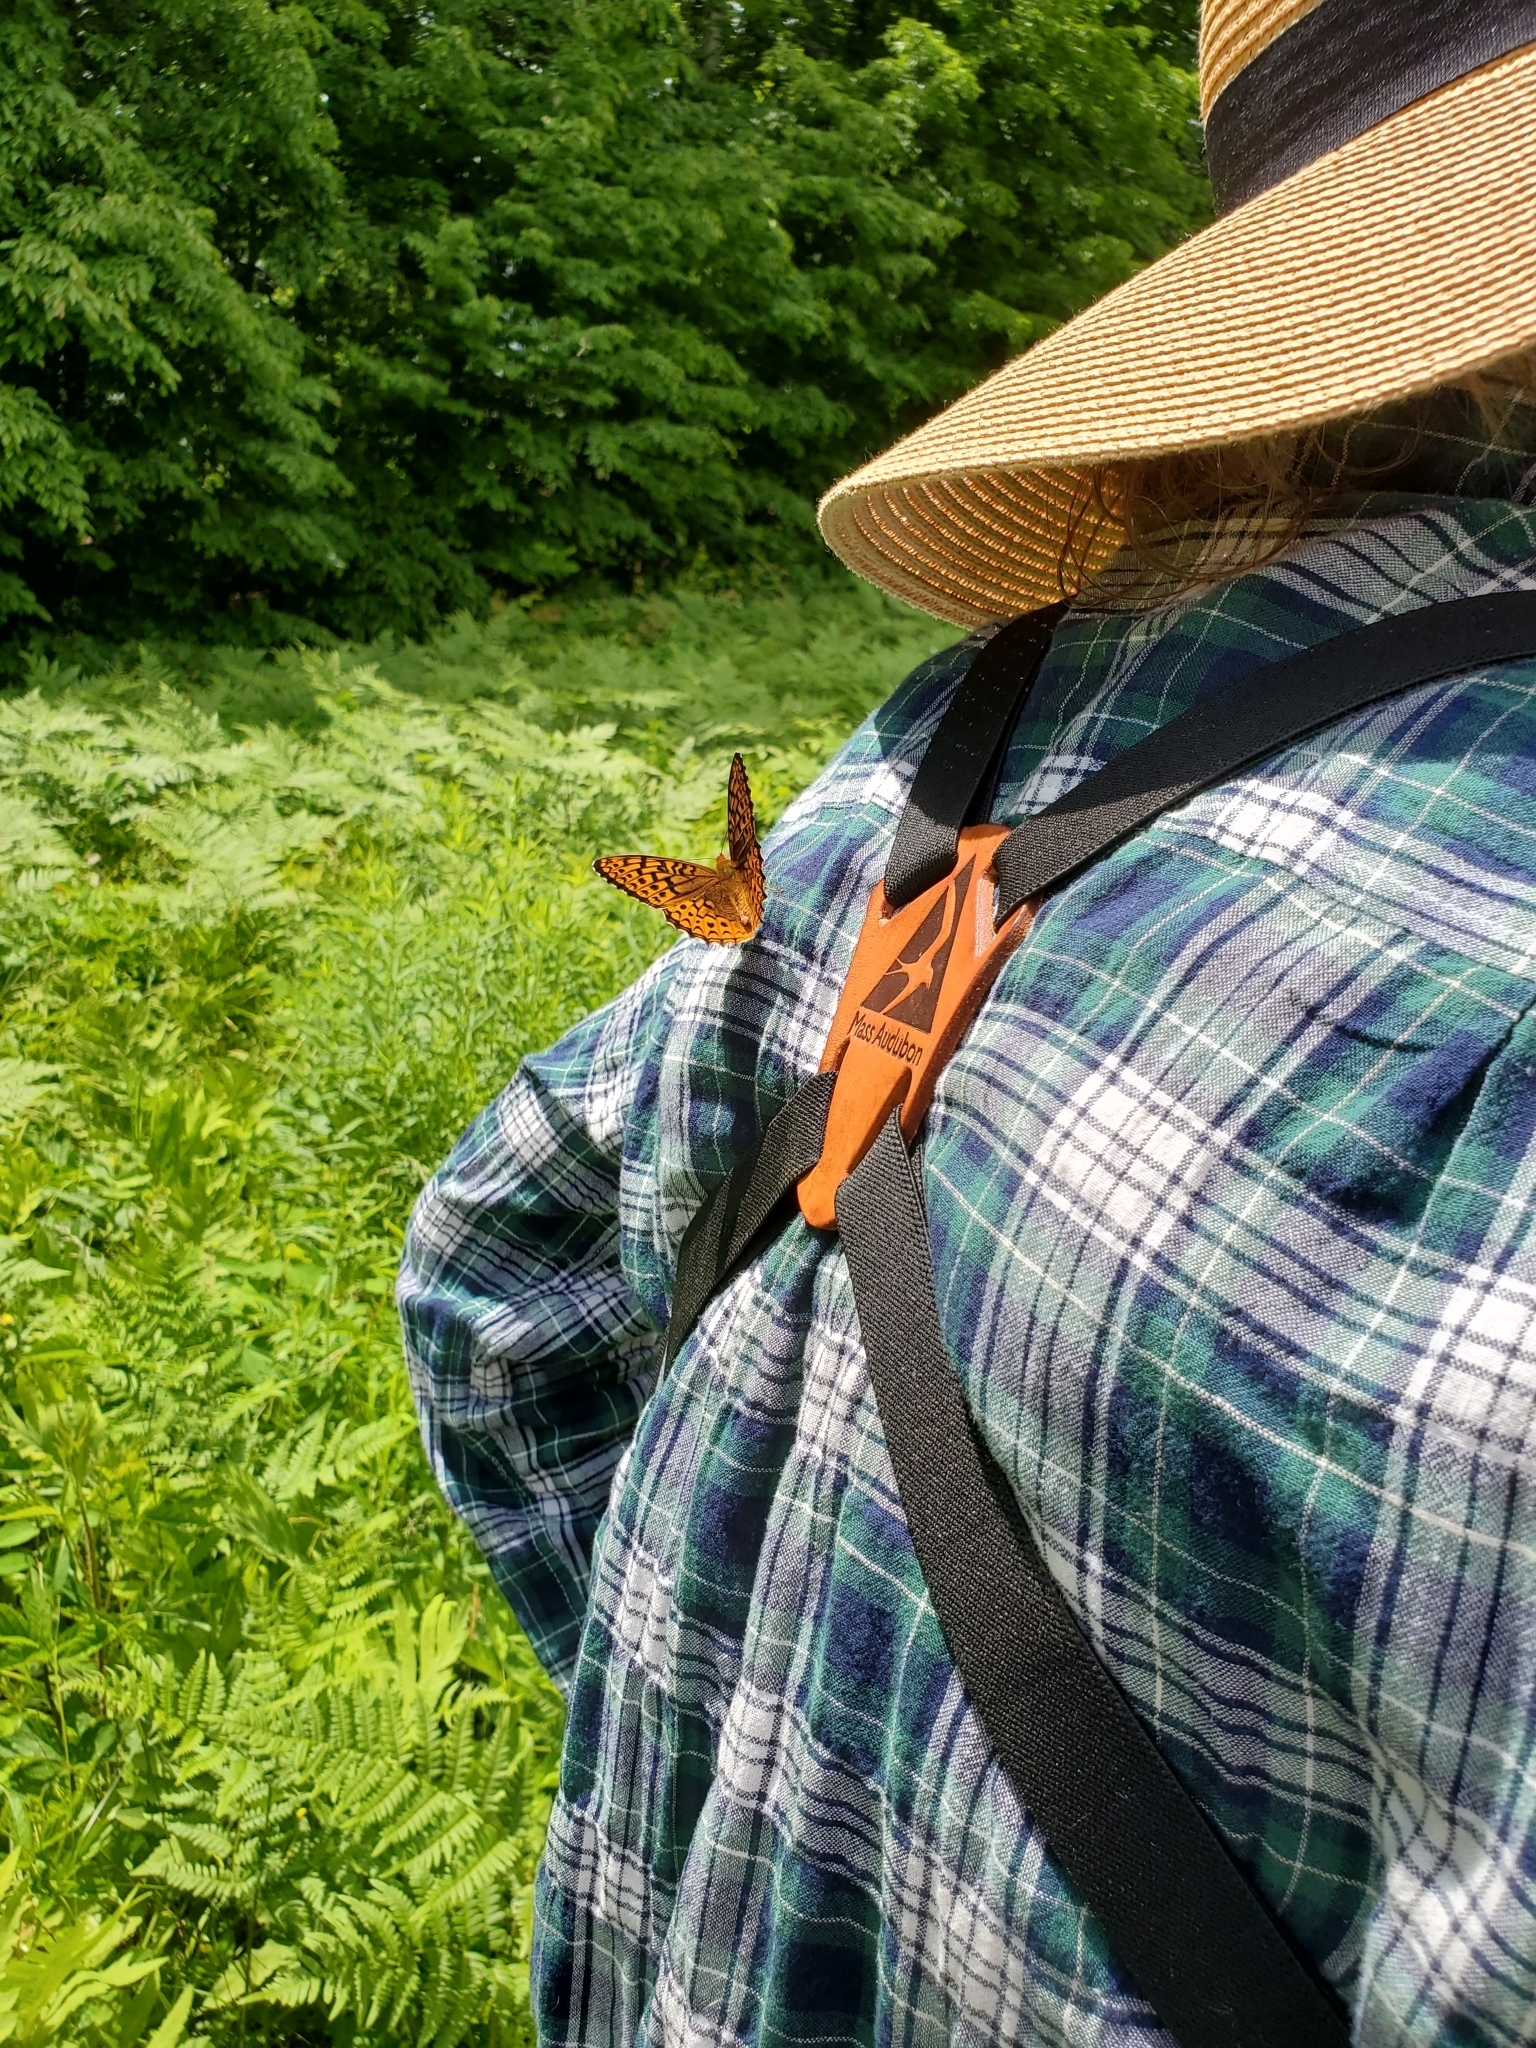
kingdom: Animalia
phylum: Arthropoda
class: Insecta
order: Lepidoptera
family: Nymphalidae
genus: Speyeria
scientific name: Speyeria atlantis
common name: Atlantis fritillary
